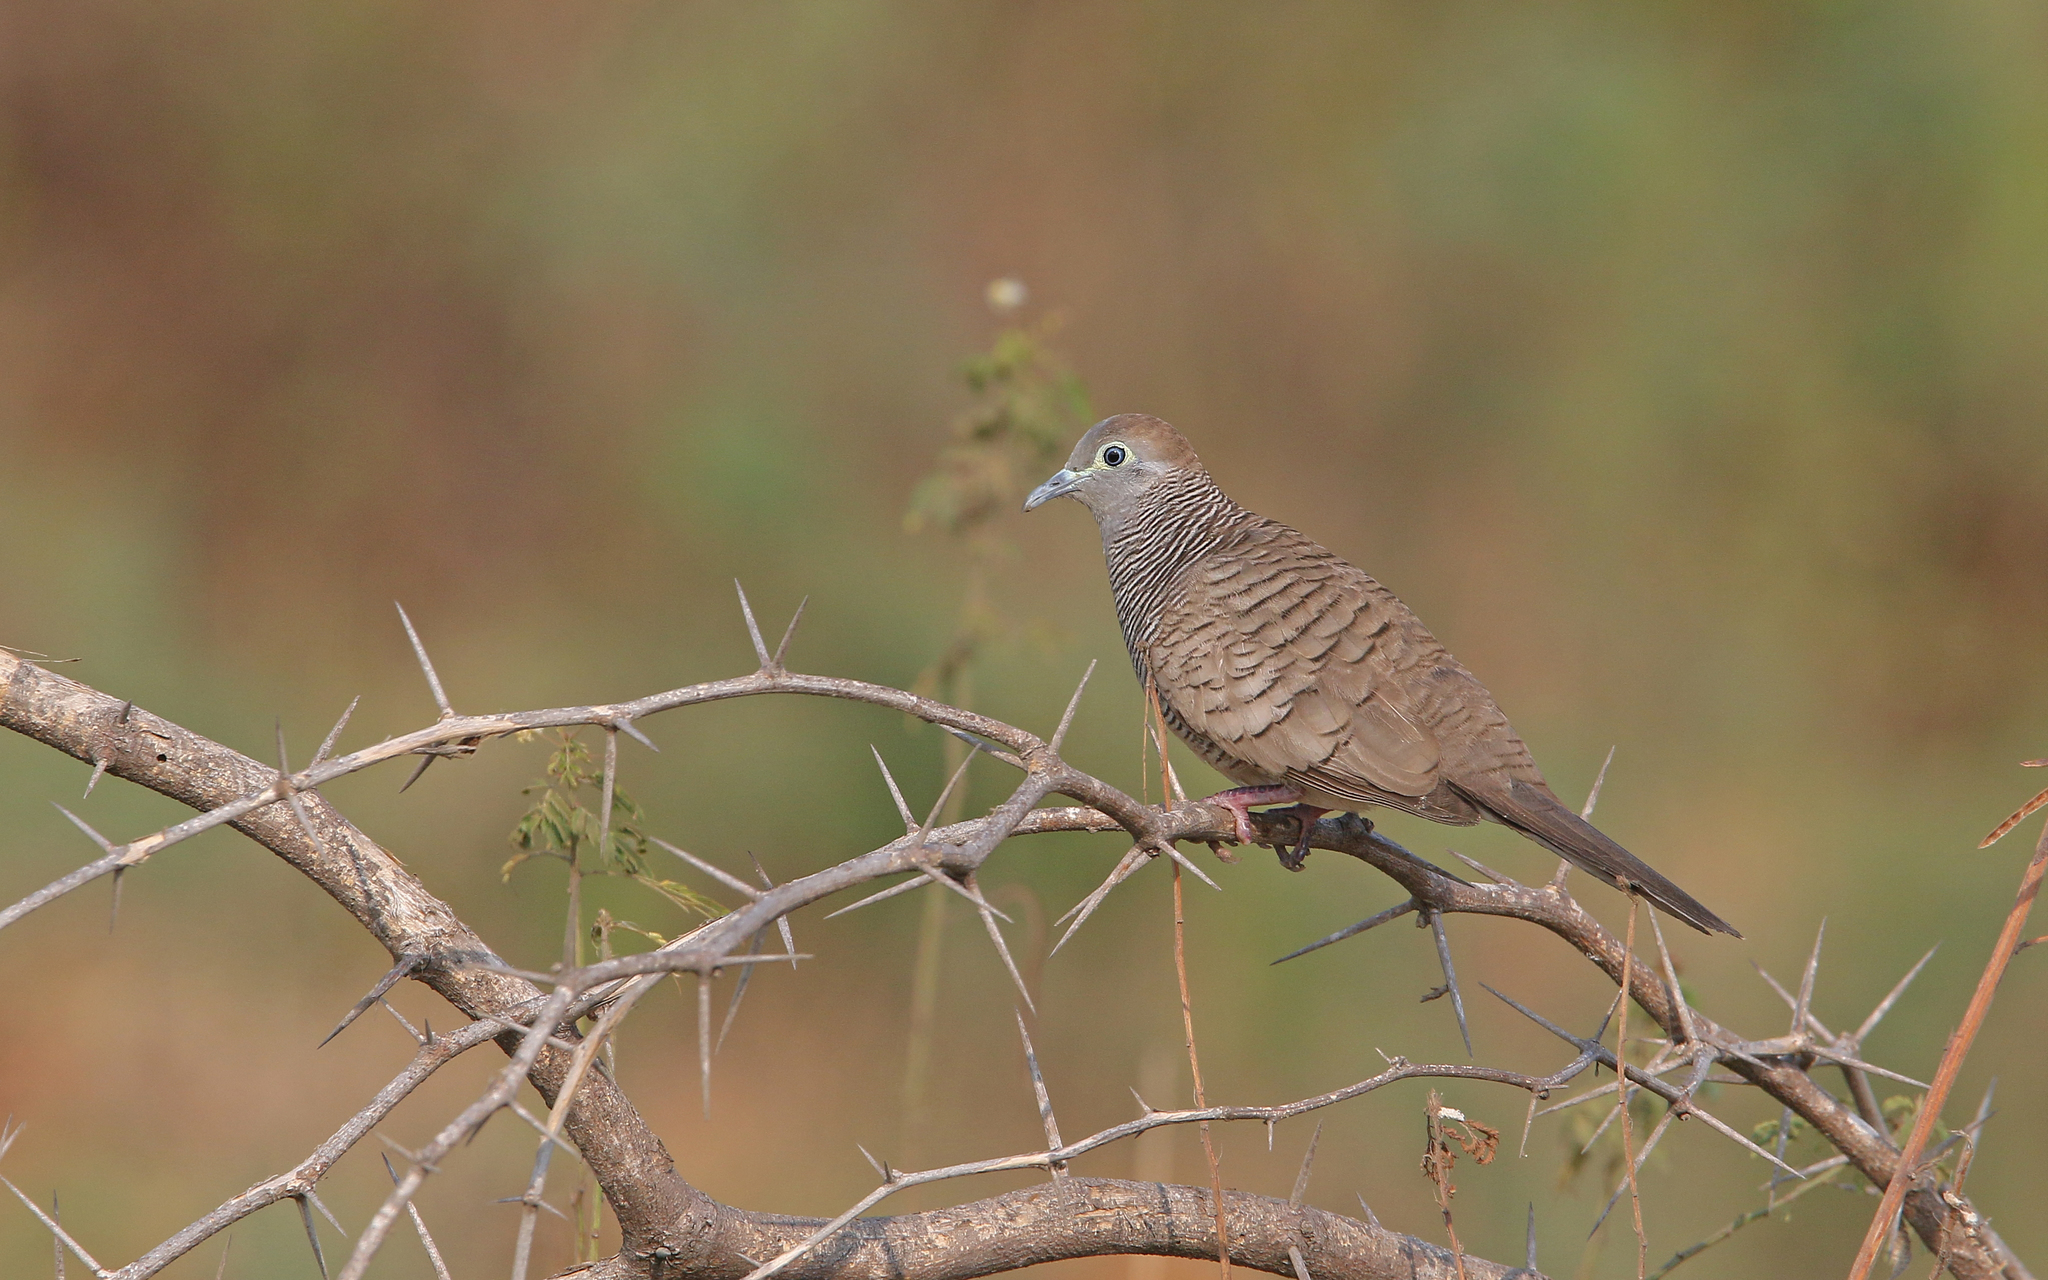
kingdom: Animalia
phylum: Chordata
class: Aves
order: Columbiformes
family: Columbidae
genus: Geopelia
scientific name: Geopelia striata
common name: Zebra dove
